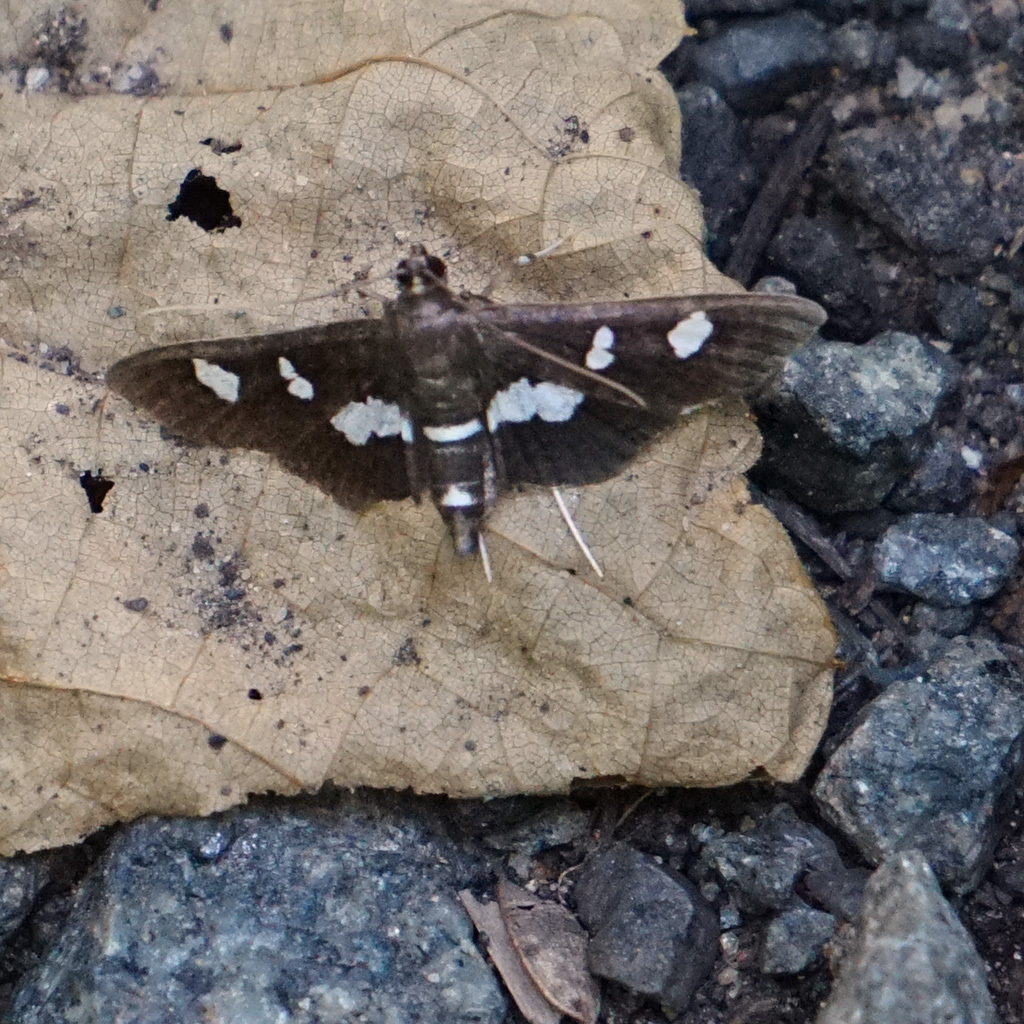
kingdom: Animalia
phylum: Arthropoda
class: Insecta
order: Lepidoptera
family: Crambidae
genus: Desmia
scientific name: Desmia
